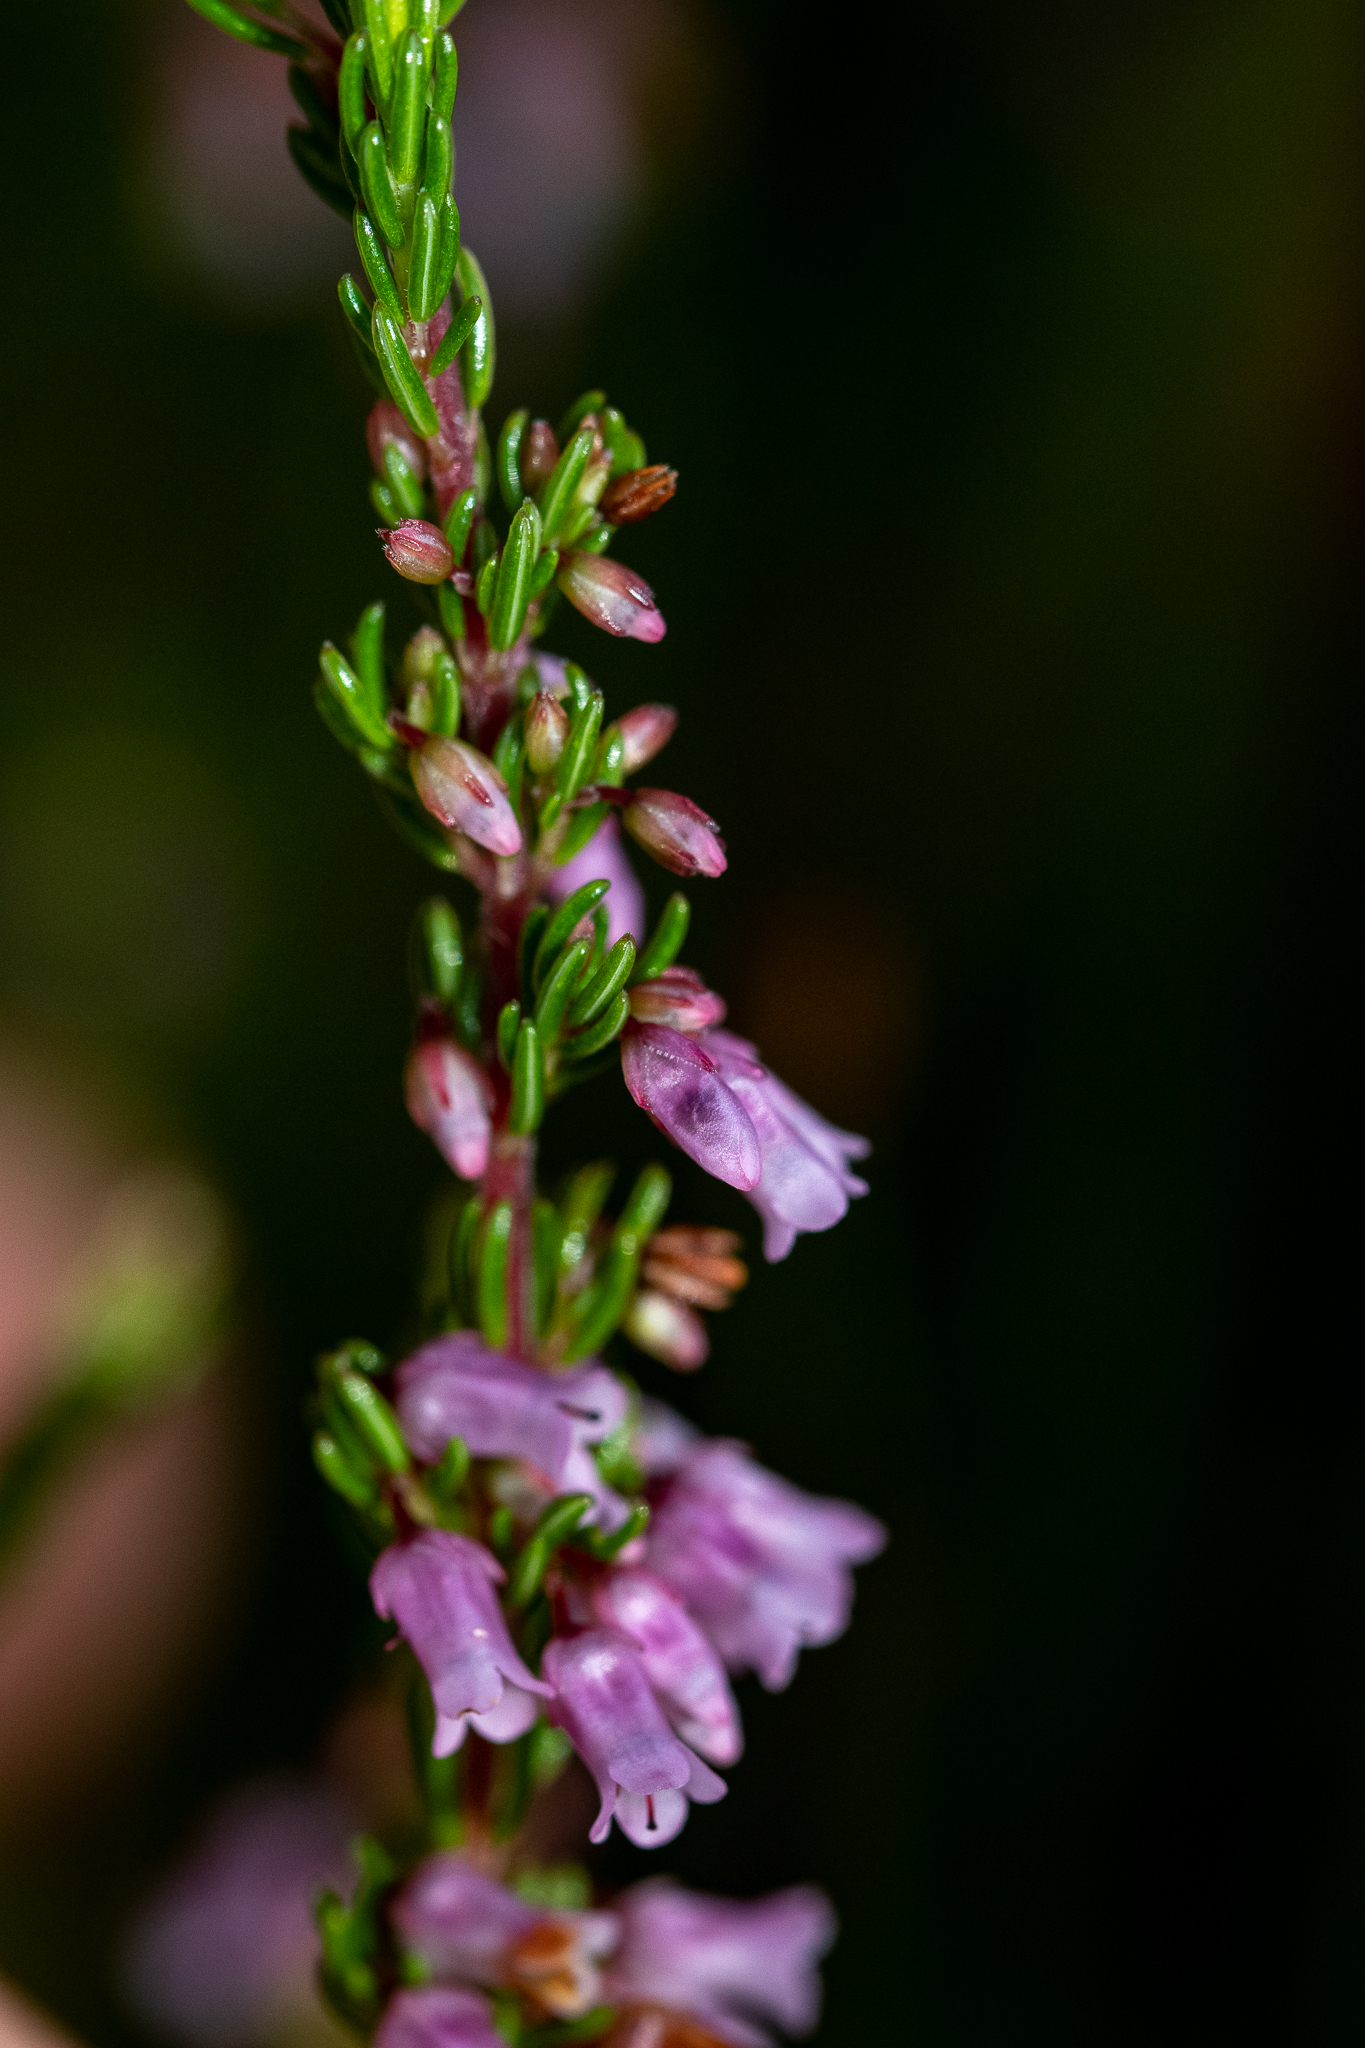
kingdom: Plantae
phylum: Tracheophyta
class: Magnoliopsida
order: Ericales
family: Ericaceae
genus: Erica
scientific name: Erica intervallaris
